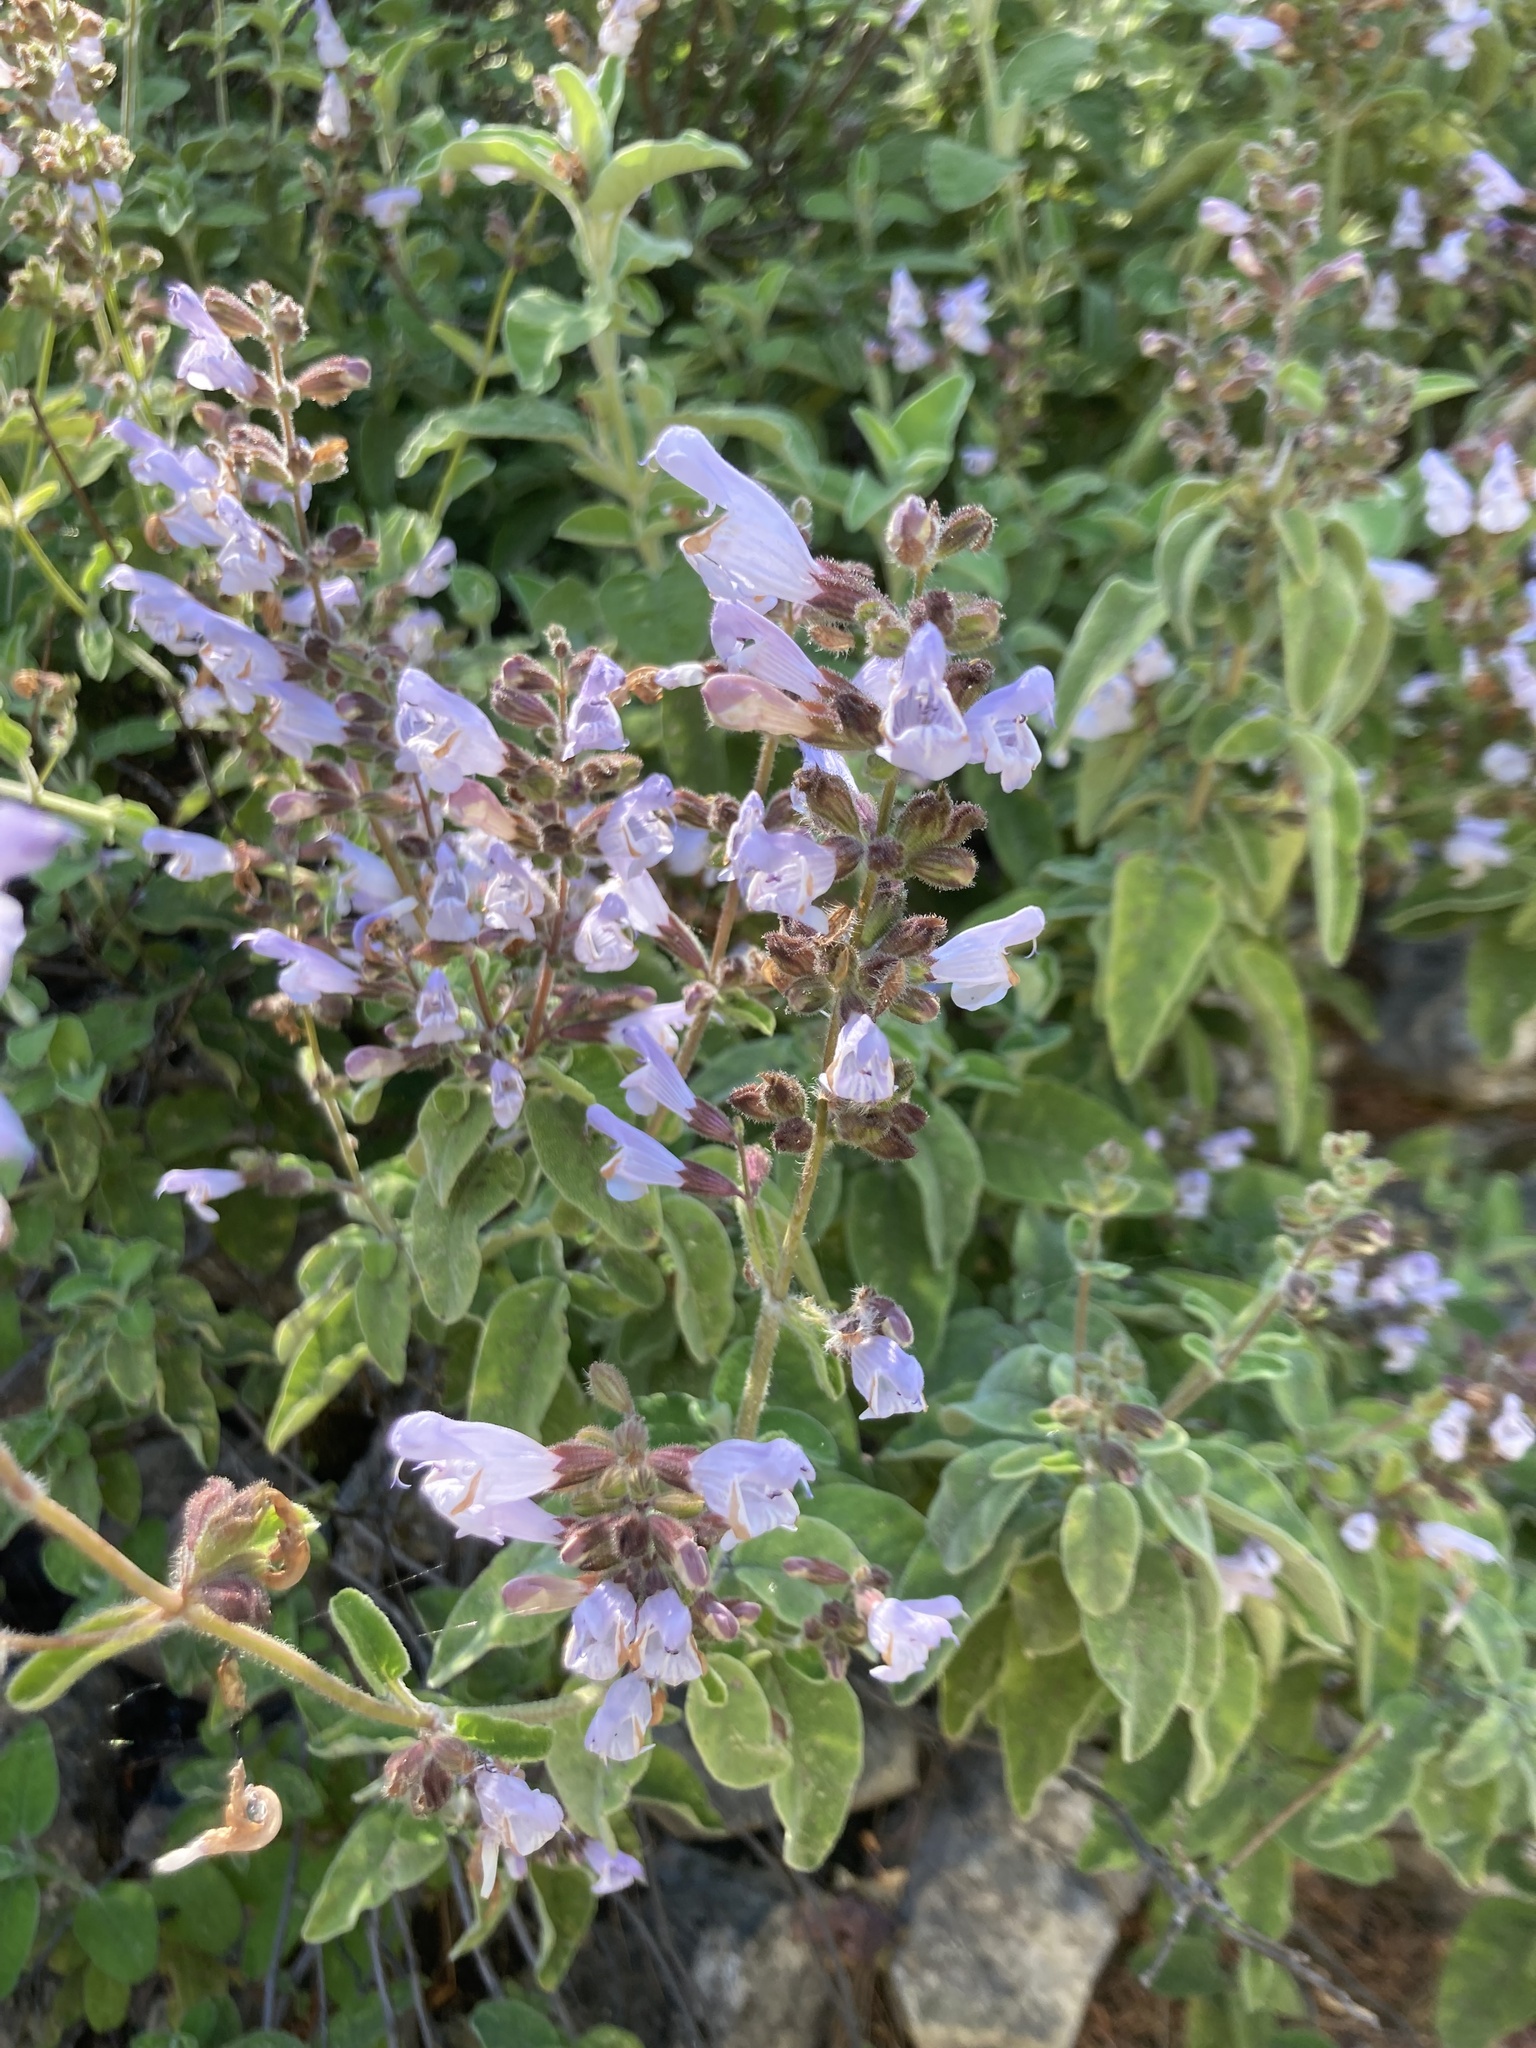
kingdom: Plantae
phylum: Tracheophyta
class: Magnoliopsida
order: Lamiales
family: Lamiaceae
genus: Salvia
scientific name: Salvia fruticosa
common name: Greek sage
